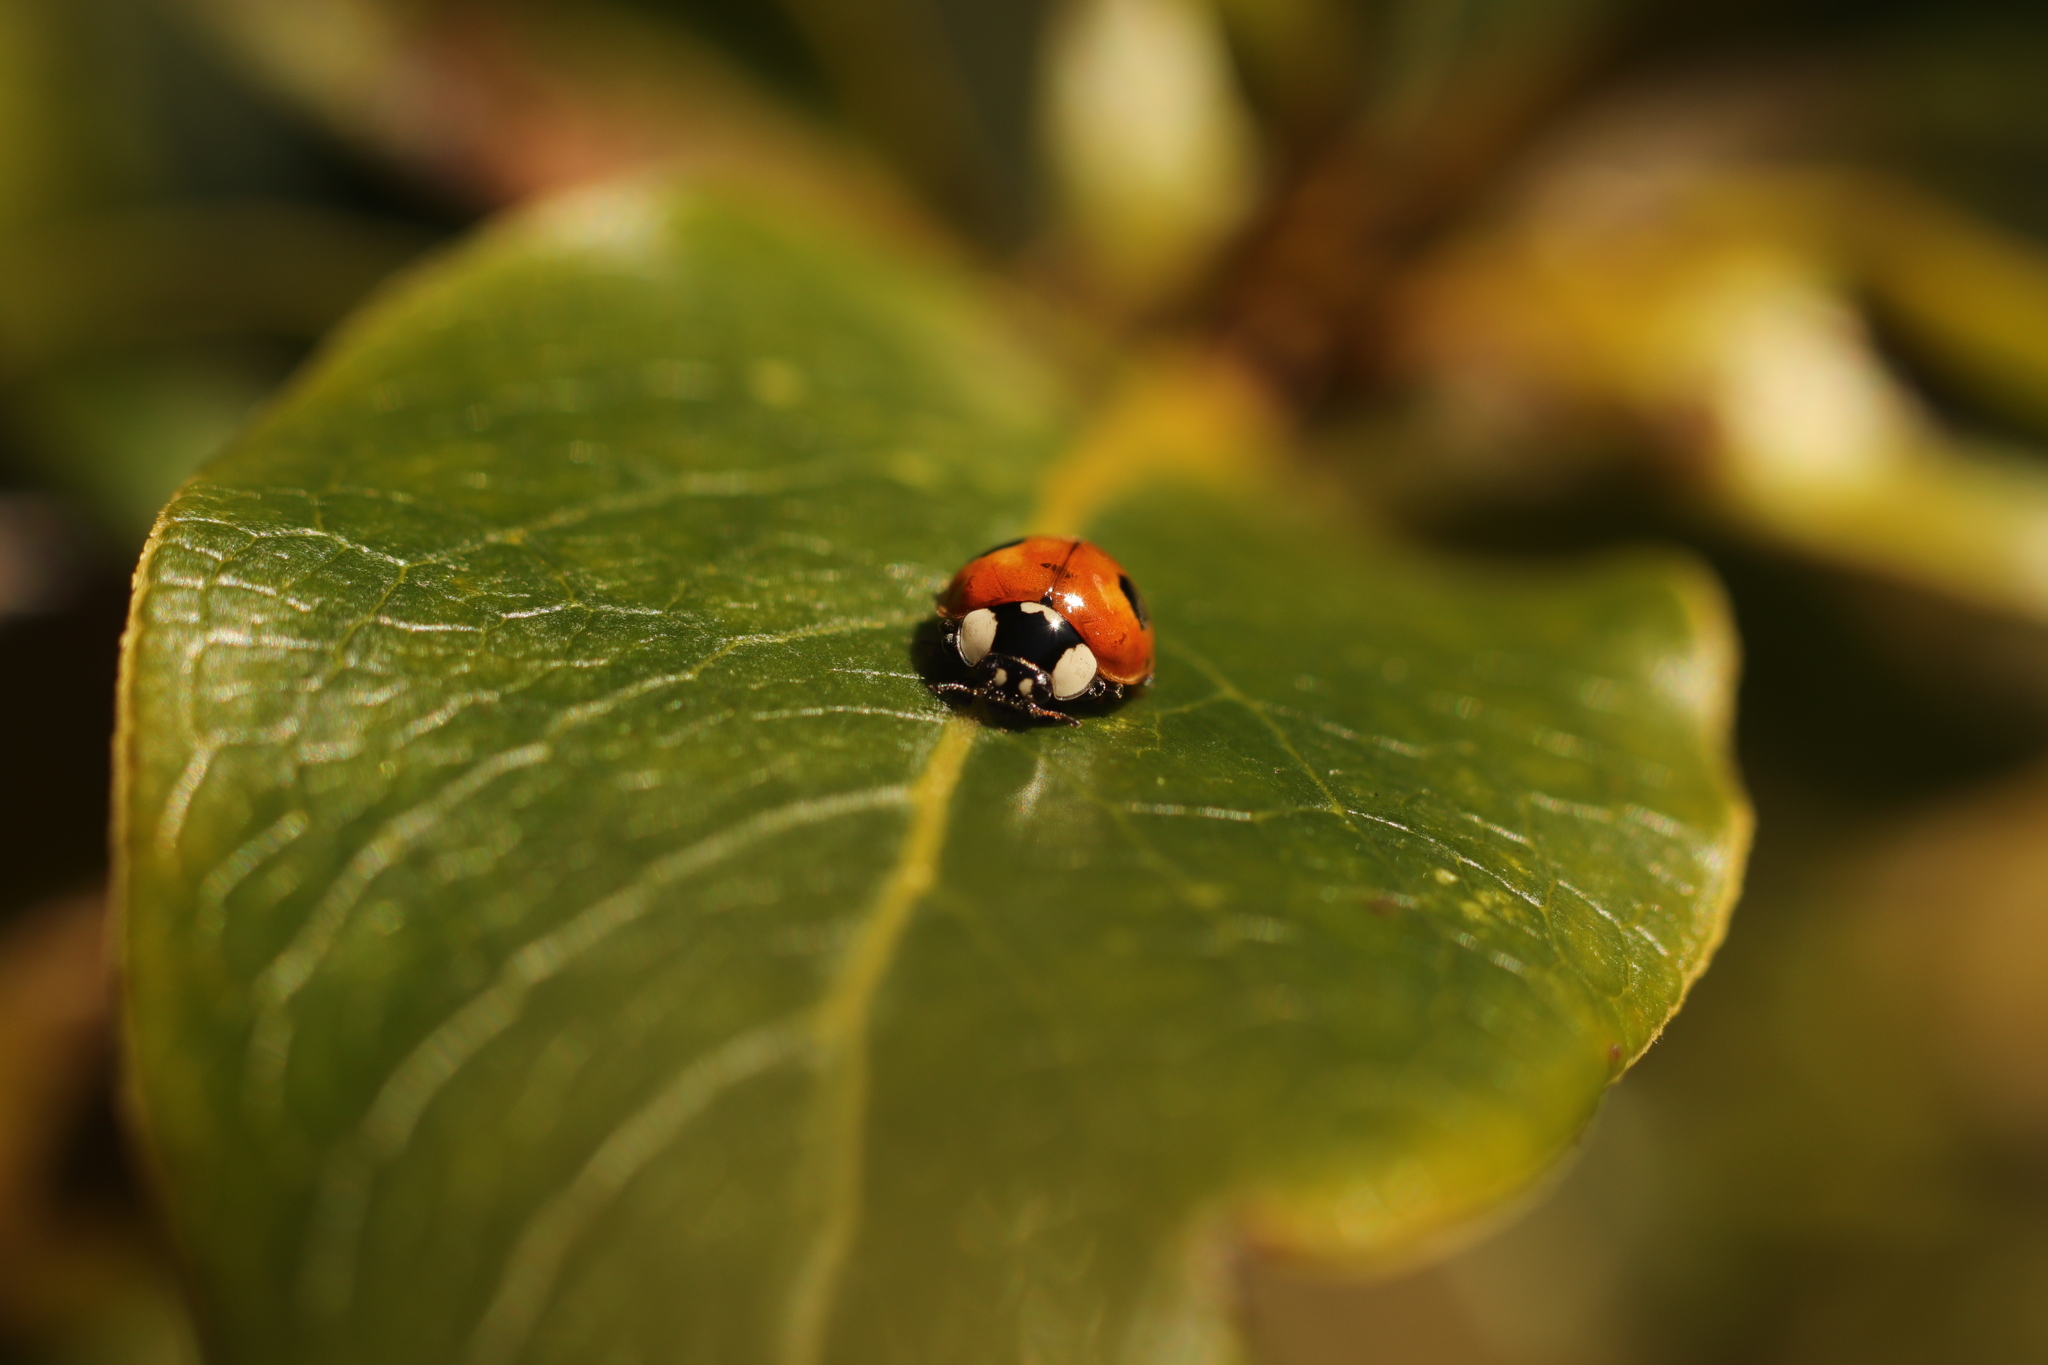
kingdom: Animalia
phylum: Arthropoda
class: Insecta
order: Coleoptera
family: Coccinellidae
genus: Adalia
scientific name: Adalia bipunctata
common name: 2-spot ladybird
